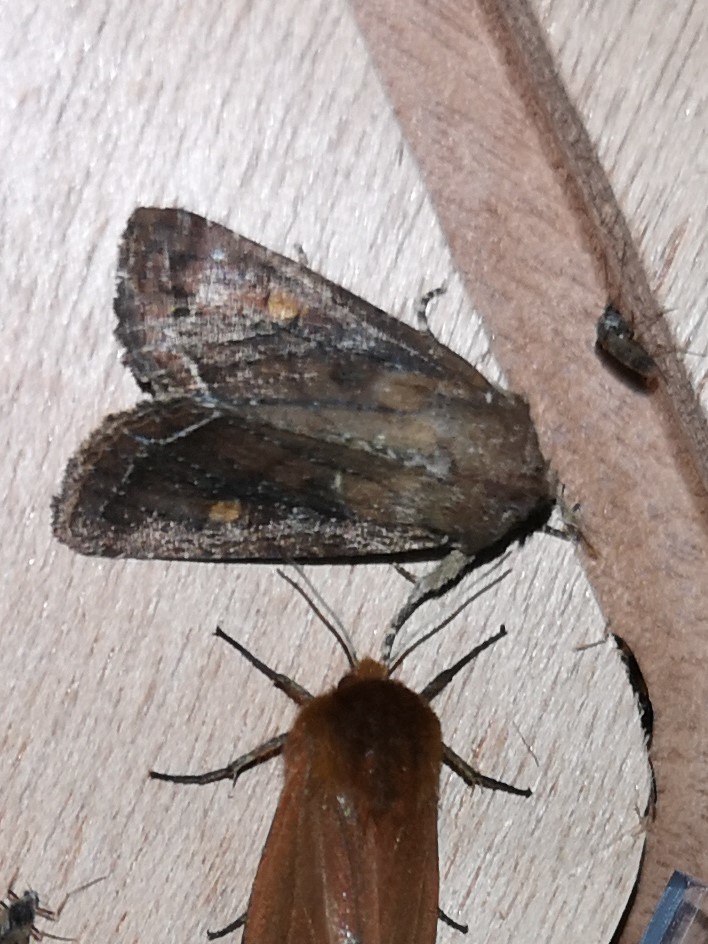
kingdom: Animalia
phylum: Arthropoda
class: Insecta
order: Lepidoptera
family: Noctuidae
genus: Lacanobia
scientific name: Lacanobia oleracea
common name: Bright-line brown-eye
